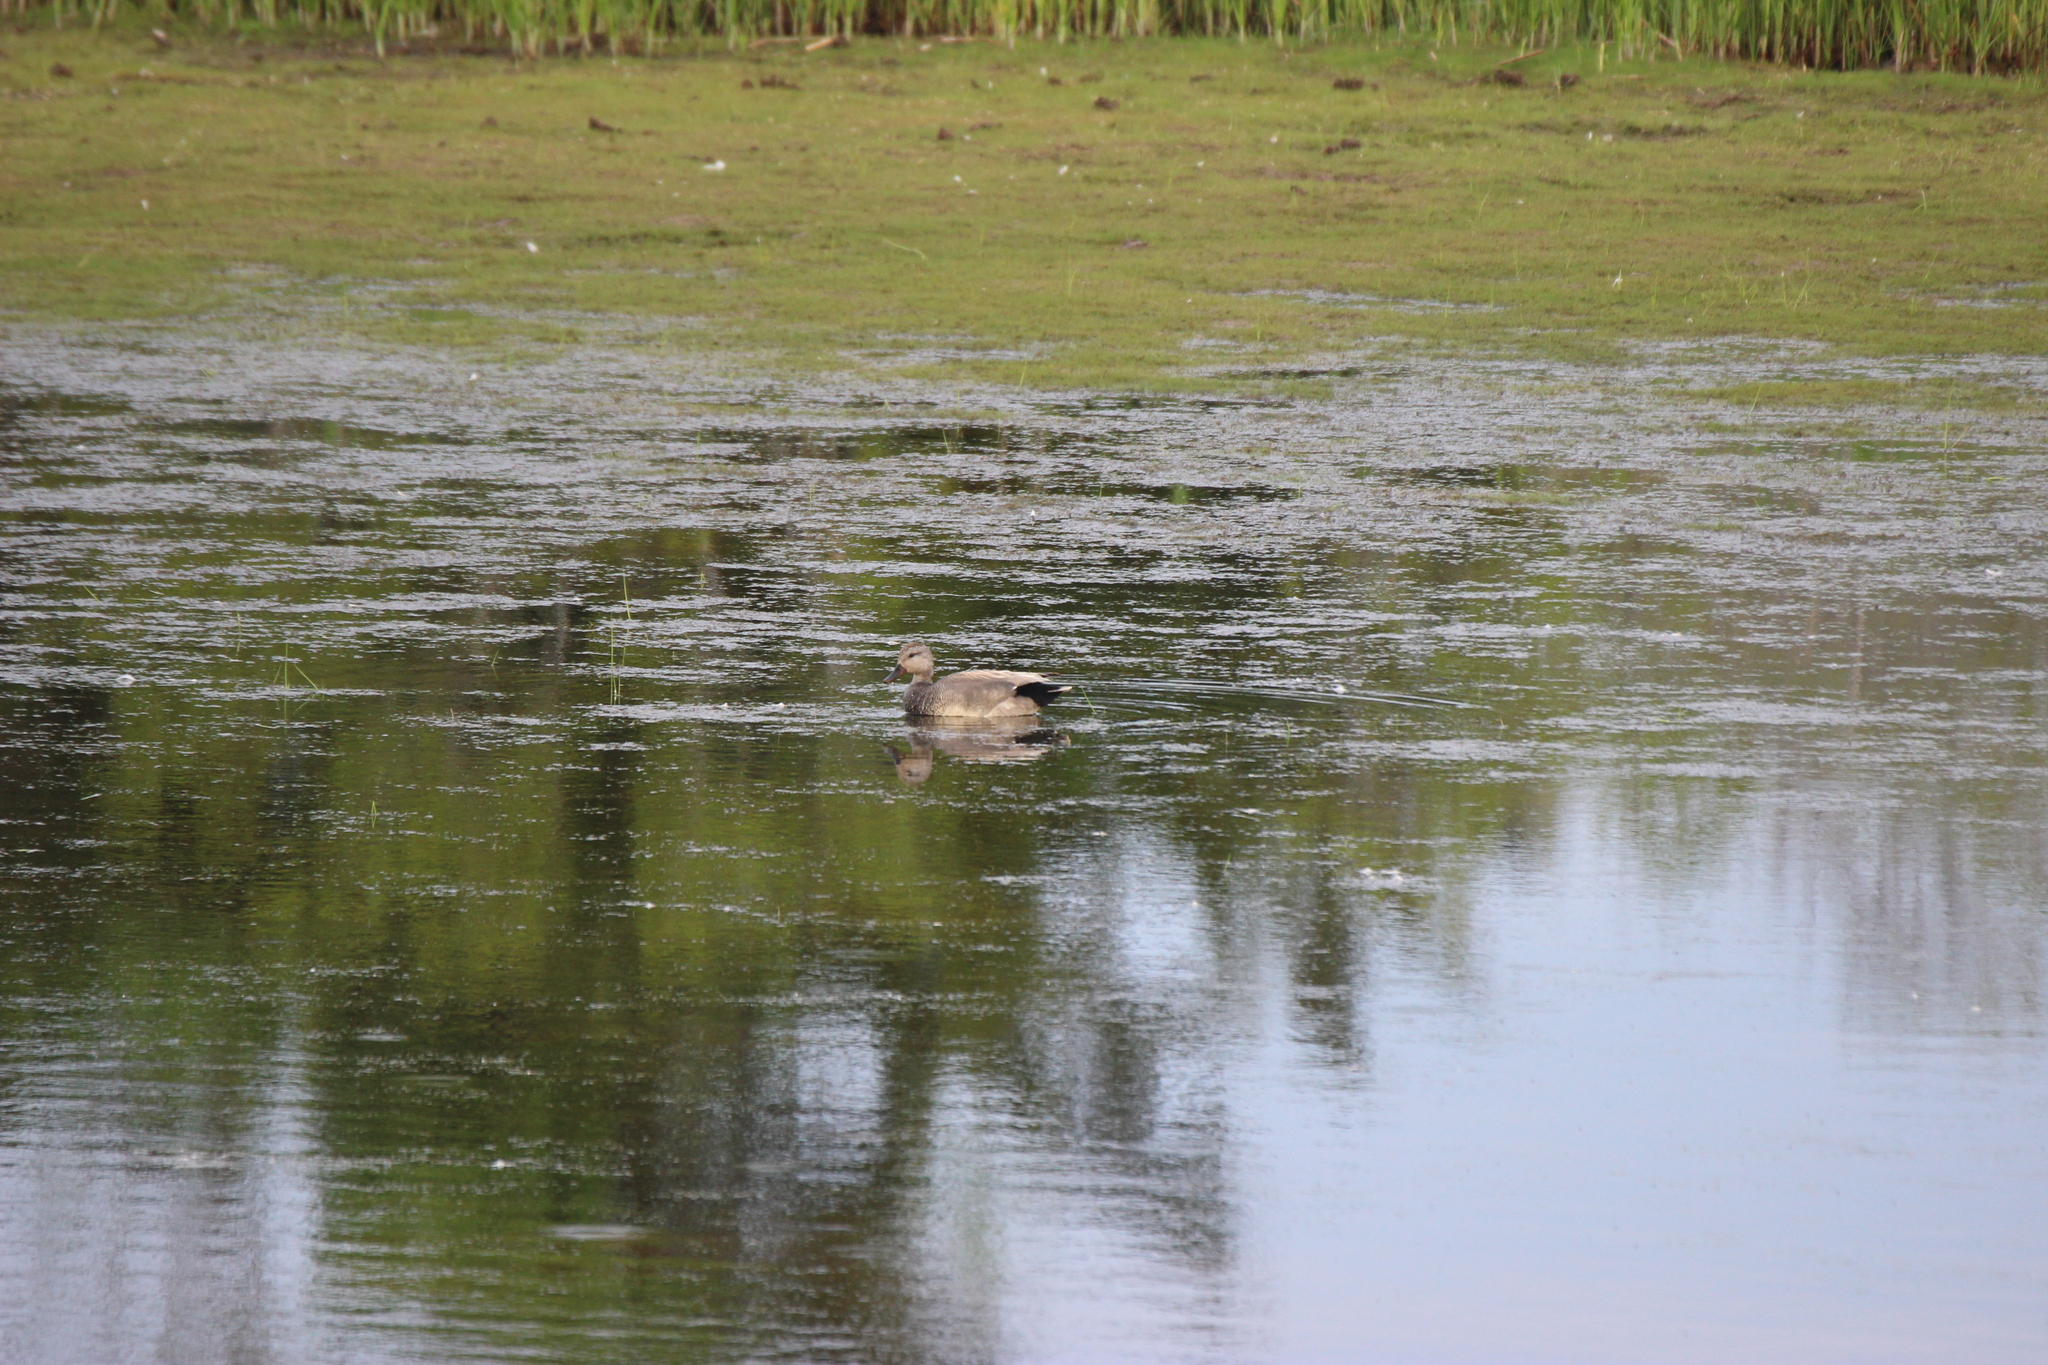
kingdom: Animalia
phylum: Chordata
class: Aves
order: Anseriformes
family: Anatidae
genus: Mareca
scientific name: Mareca strepera
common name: Gadwall
